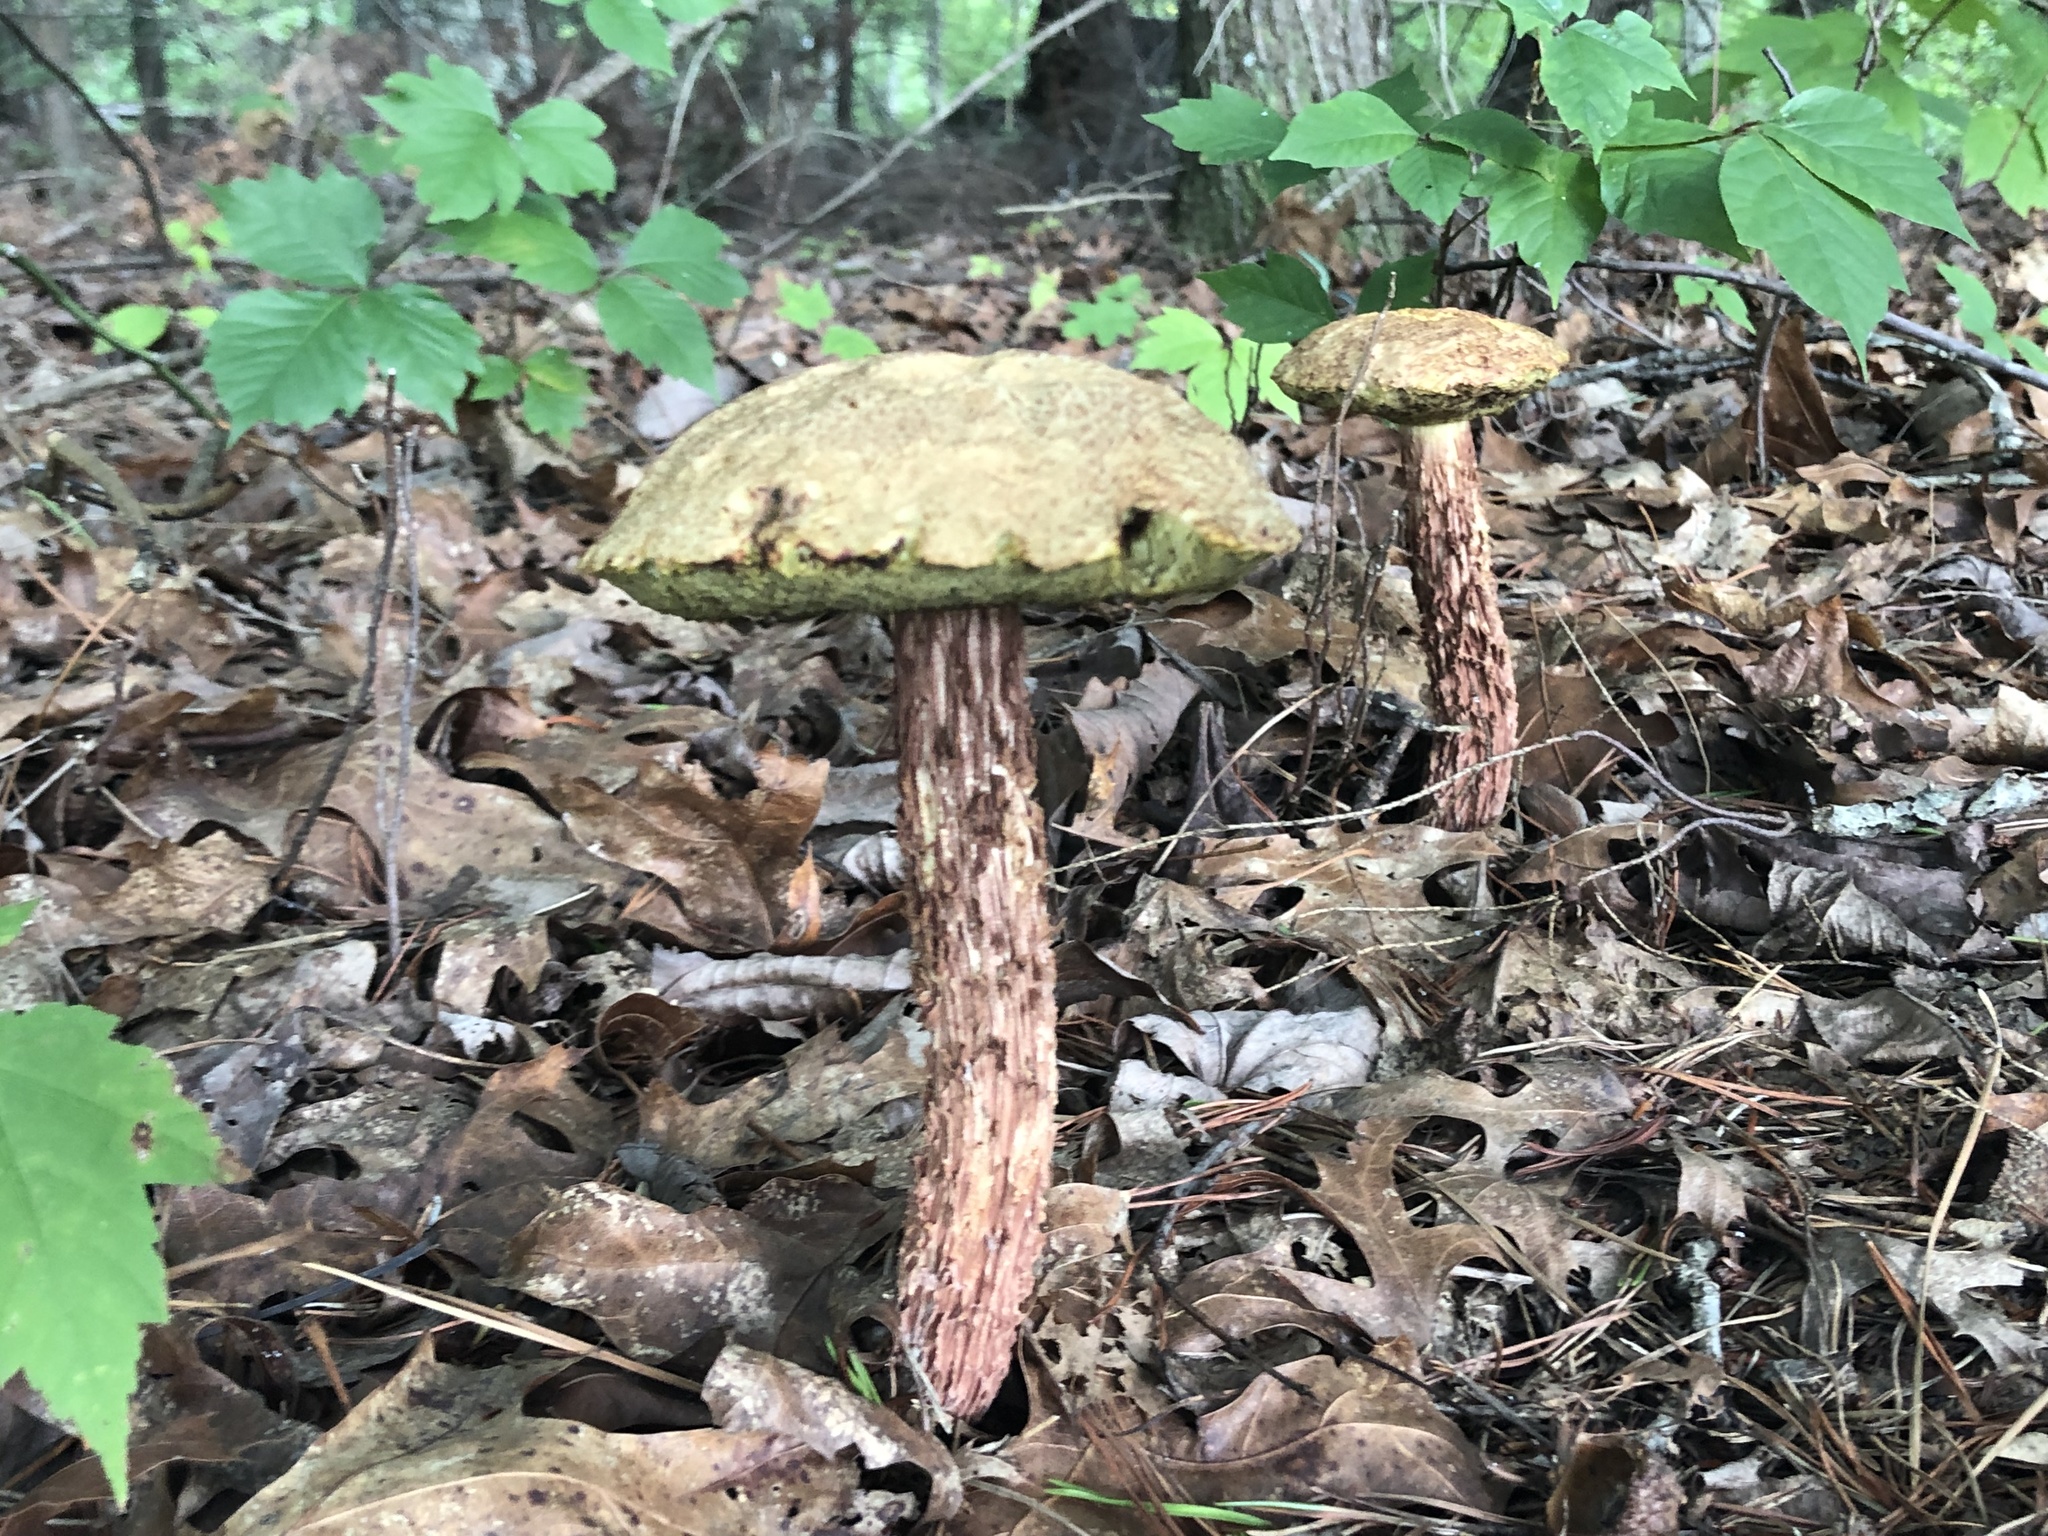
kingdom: Fungi
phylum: Basidiomycota
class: Agaricomycetes
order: Boletales
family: Boletaceae
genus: Aureoboletus
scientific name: Aureoboletus russellii
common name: Russell's bolete
